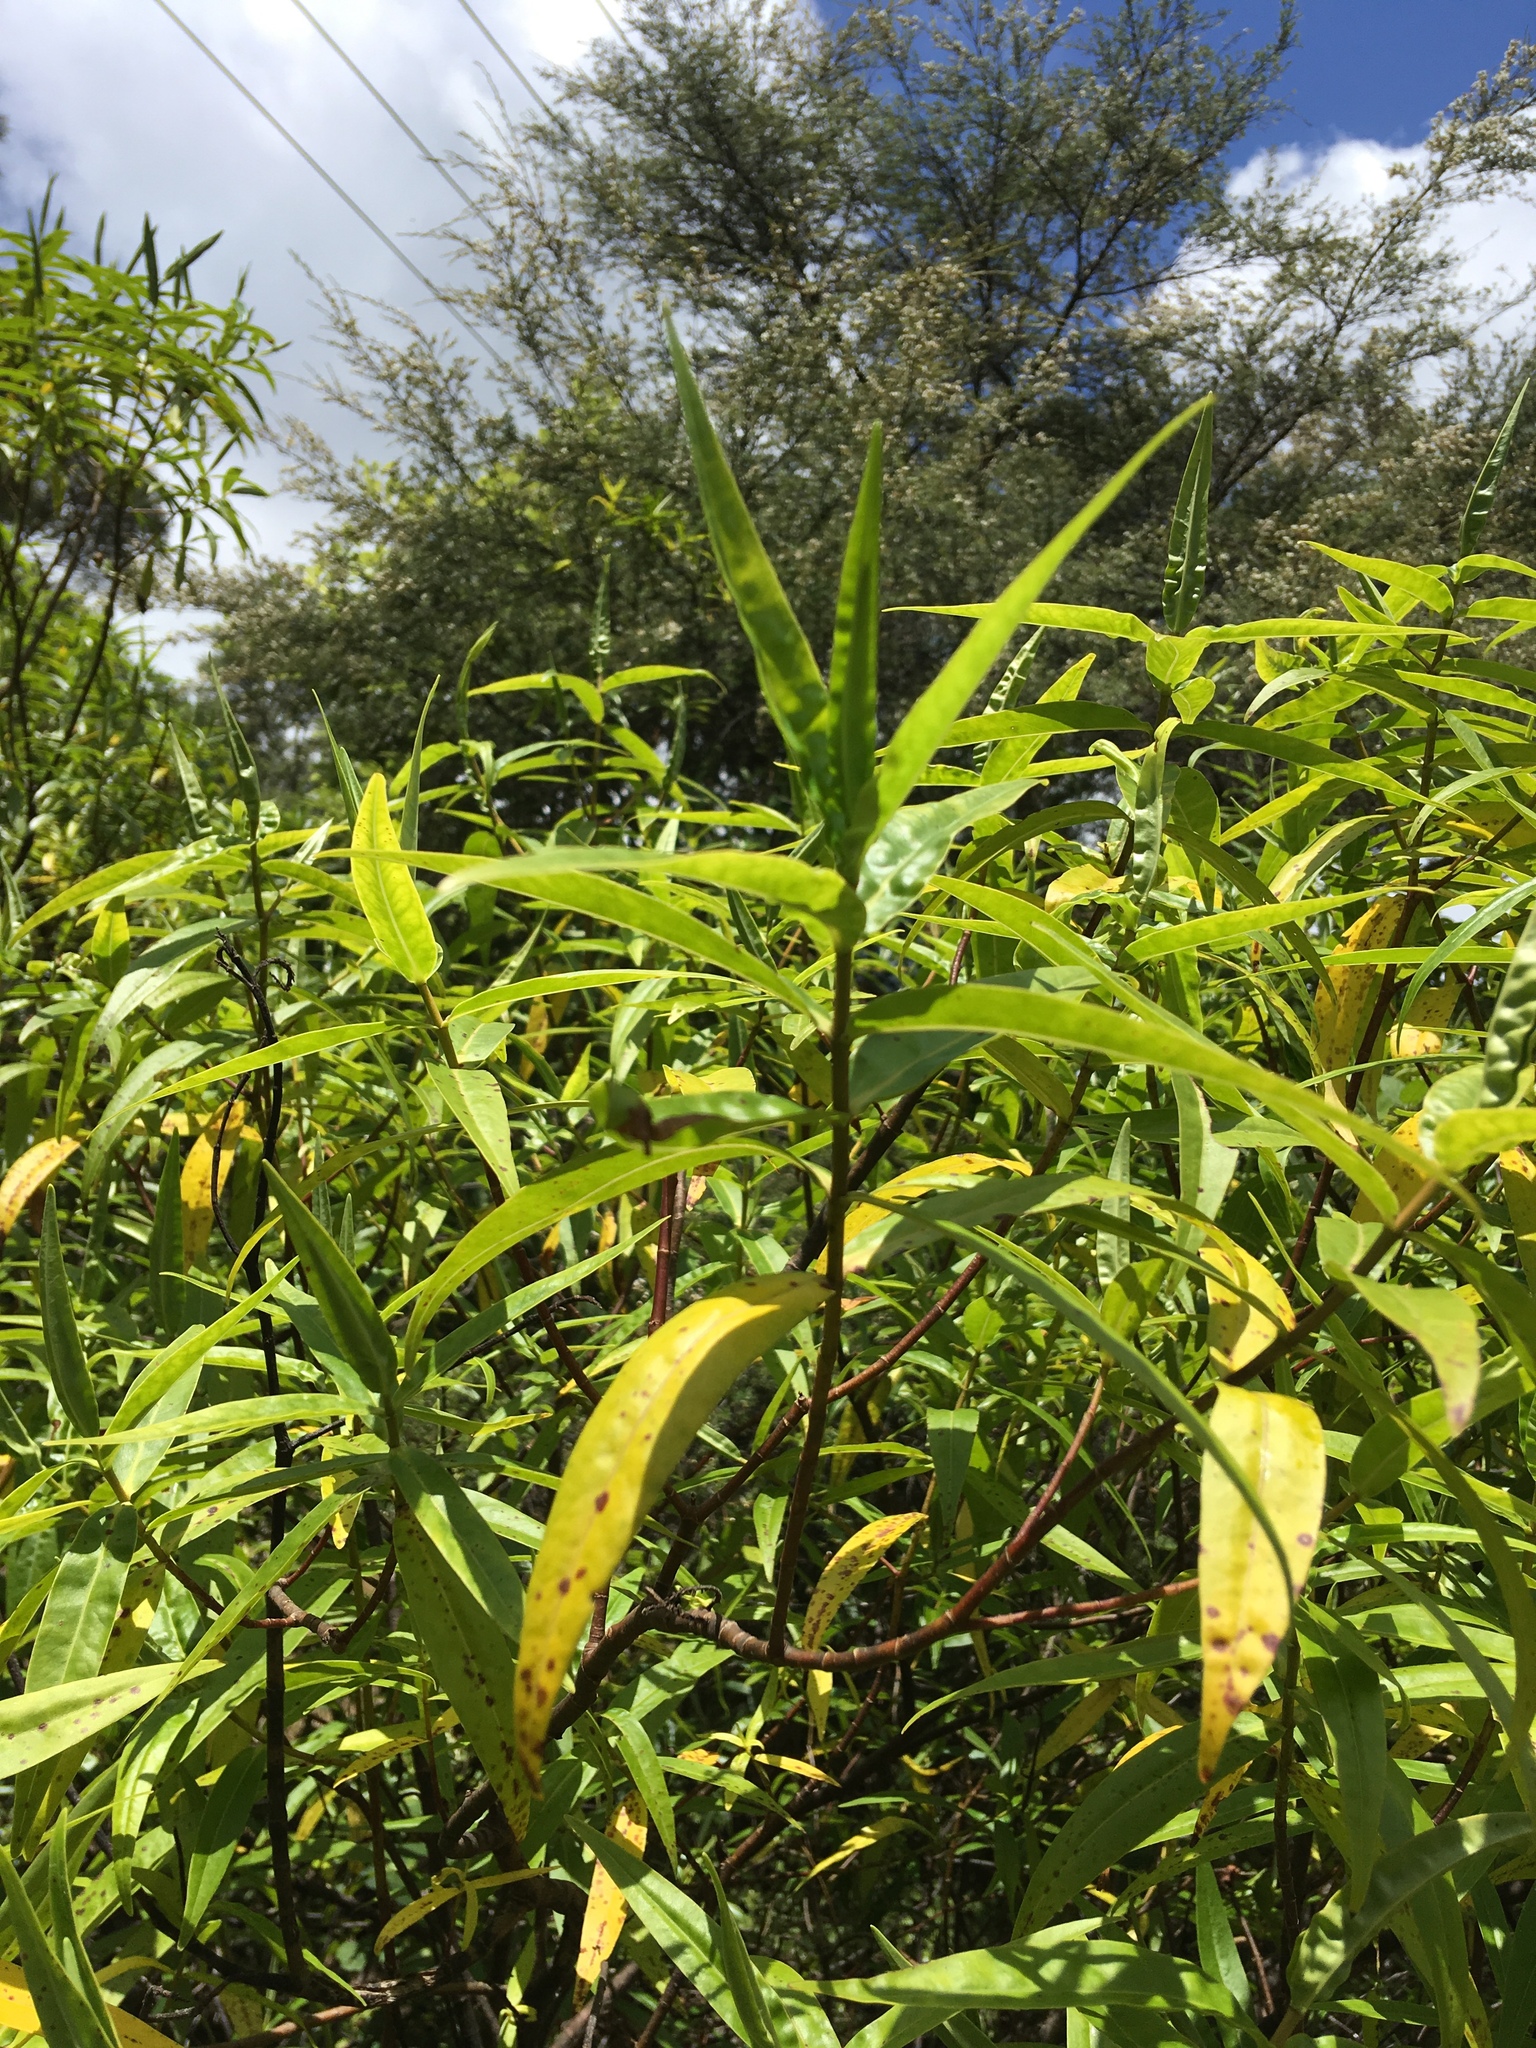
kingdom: Plantae
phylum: Tracheophyta
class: Magnoliopsida
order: Lamiales
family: Plantaginaceae
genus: Veronica
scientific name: Veronica stricta
